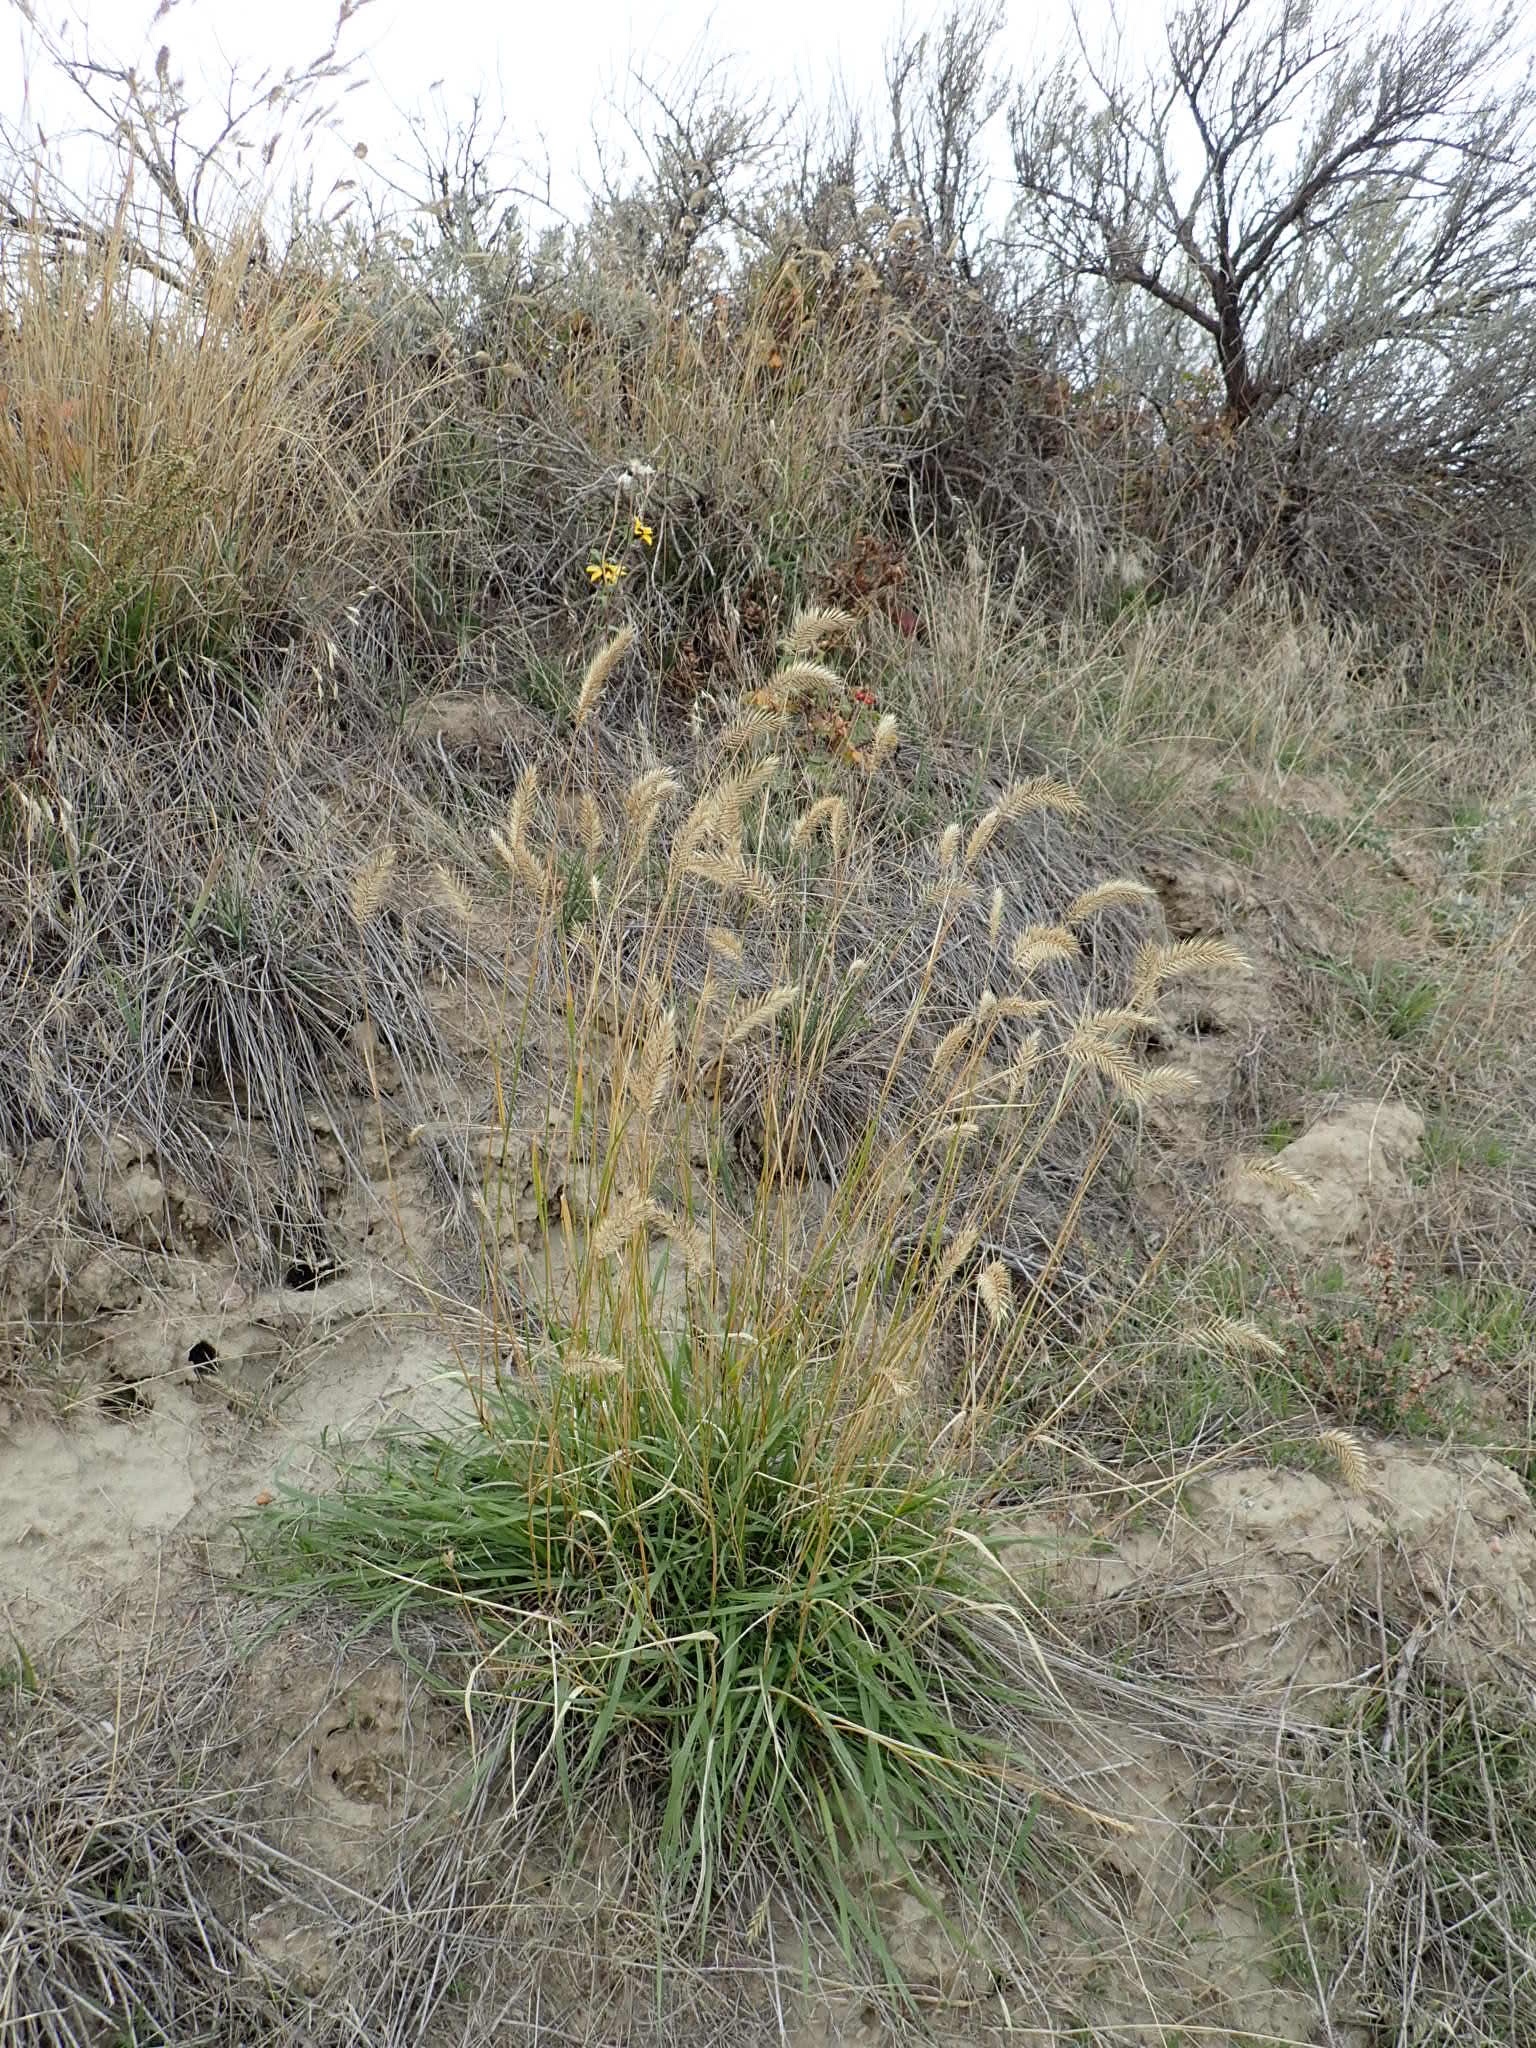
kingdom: Plantae
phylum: Tracheophyta
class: Liliopsida
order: Poales
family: Poaceae
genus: Agropyron
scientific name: Agropyron cristatum
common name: Crested wheatgrass
